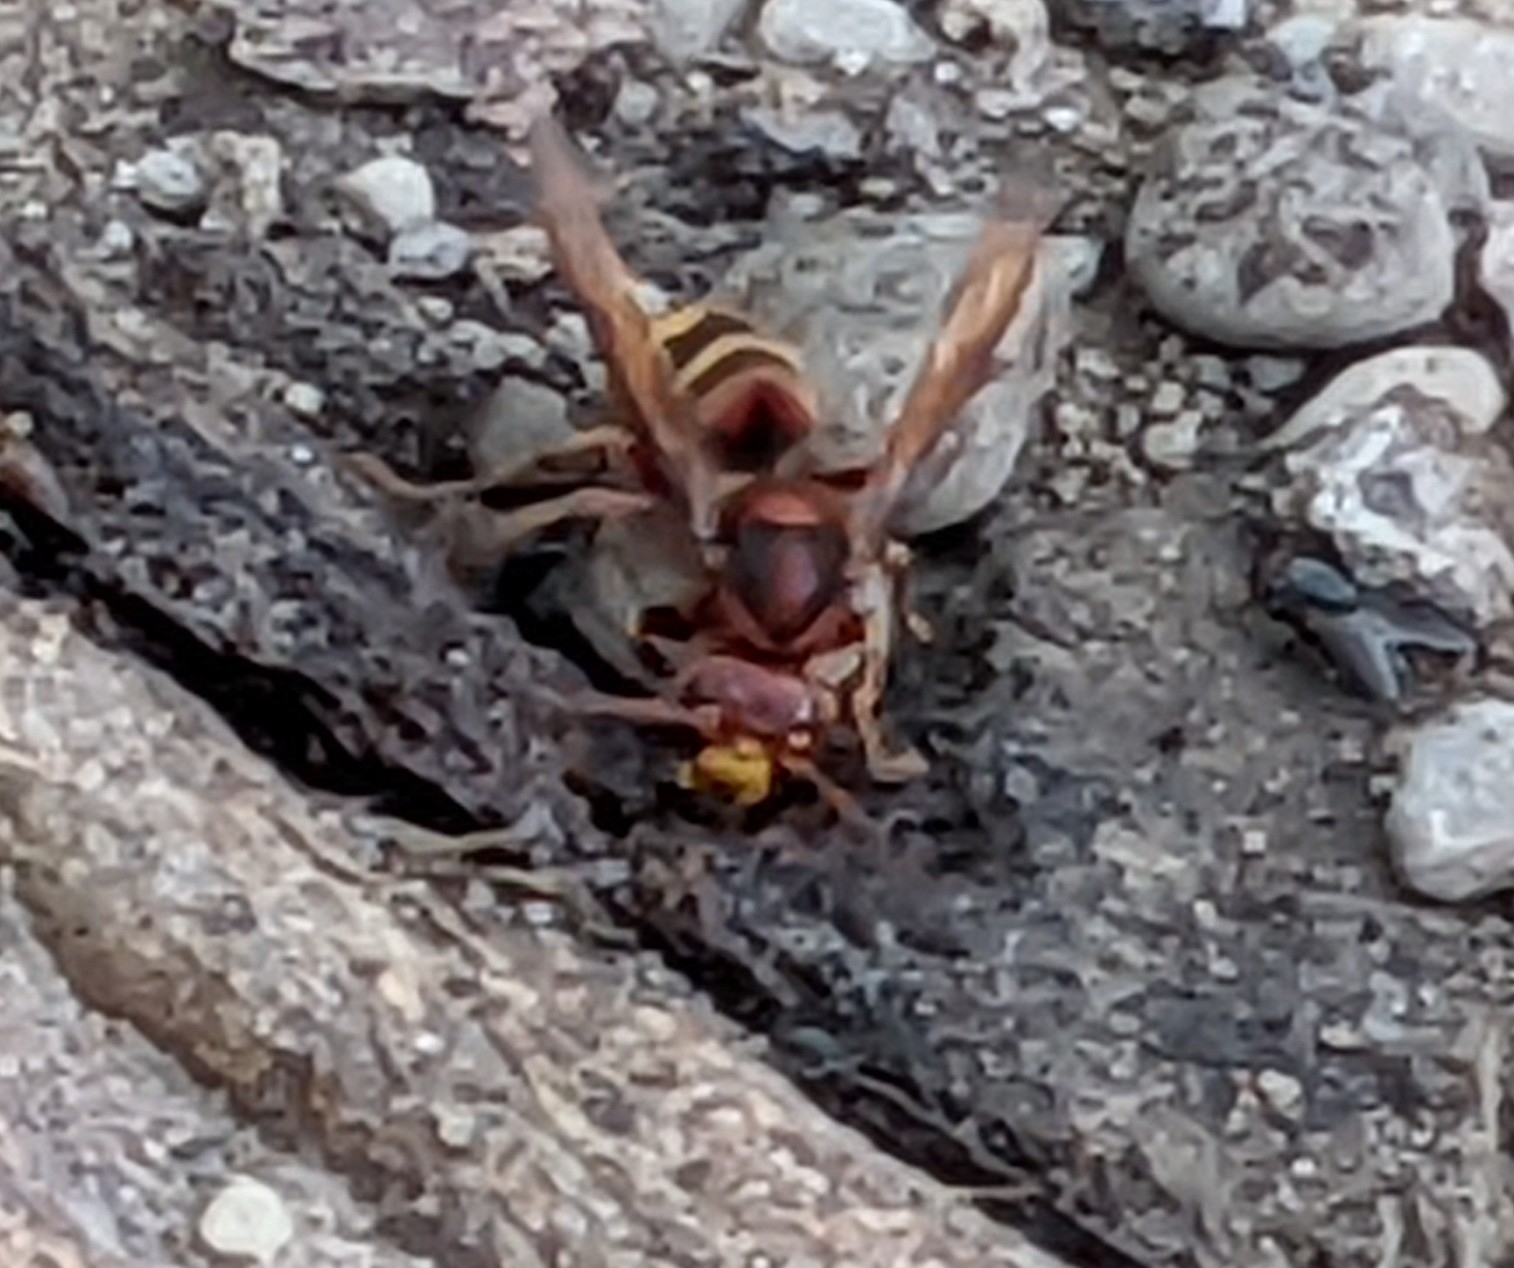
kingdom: Animalia
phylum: Arthropoda
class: Insecta
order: Hymenoptera
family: Vespidae
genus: Vespa
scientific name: Vespa crabro
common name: Hornet
